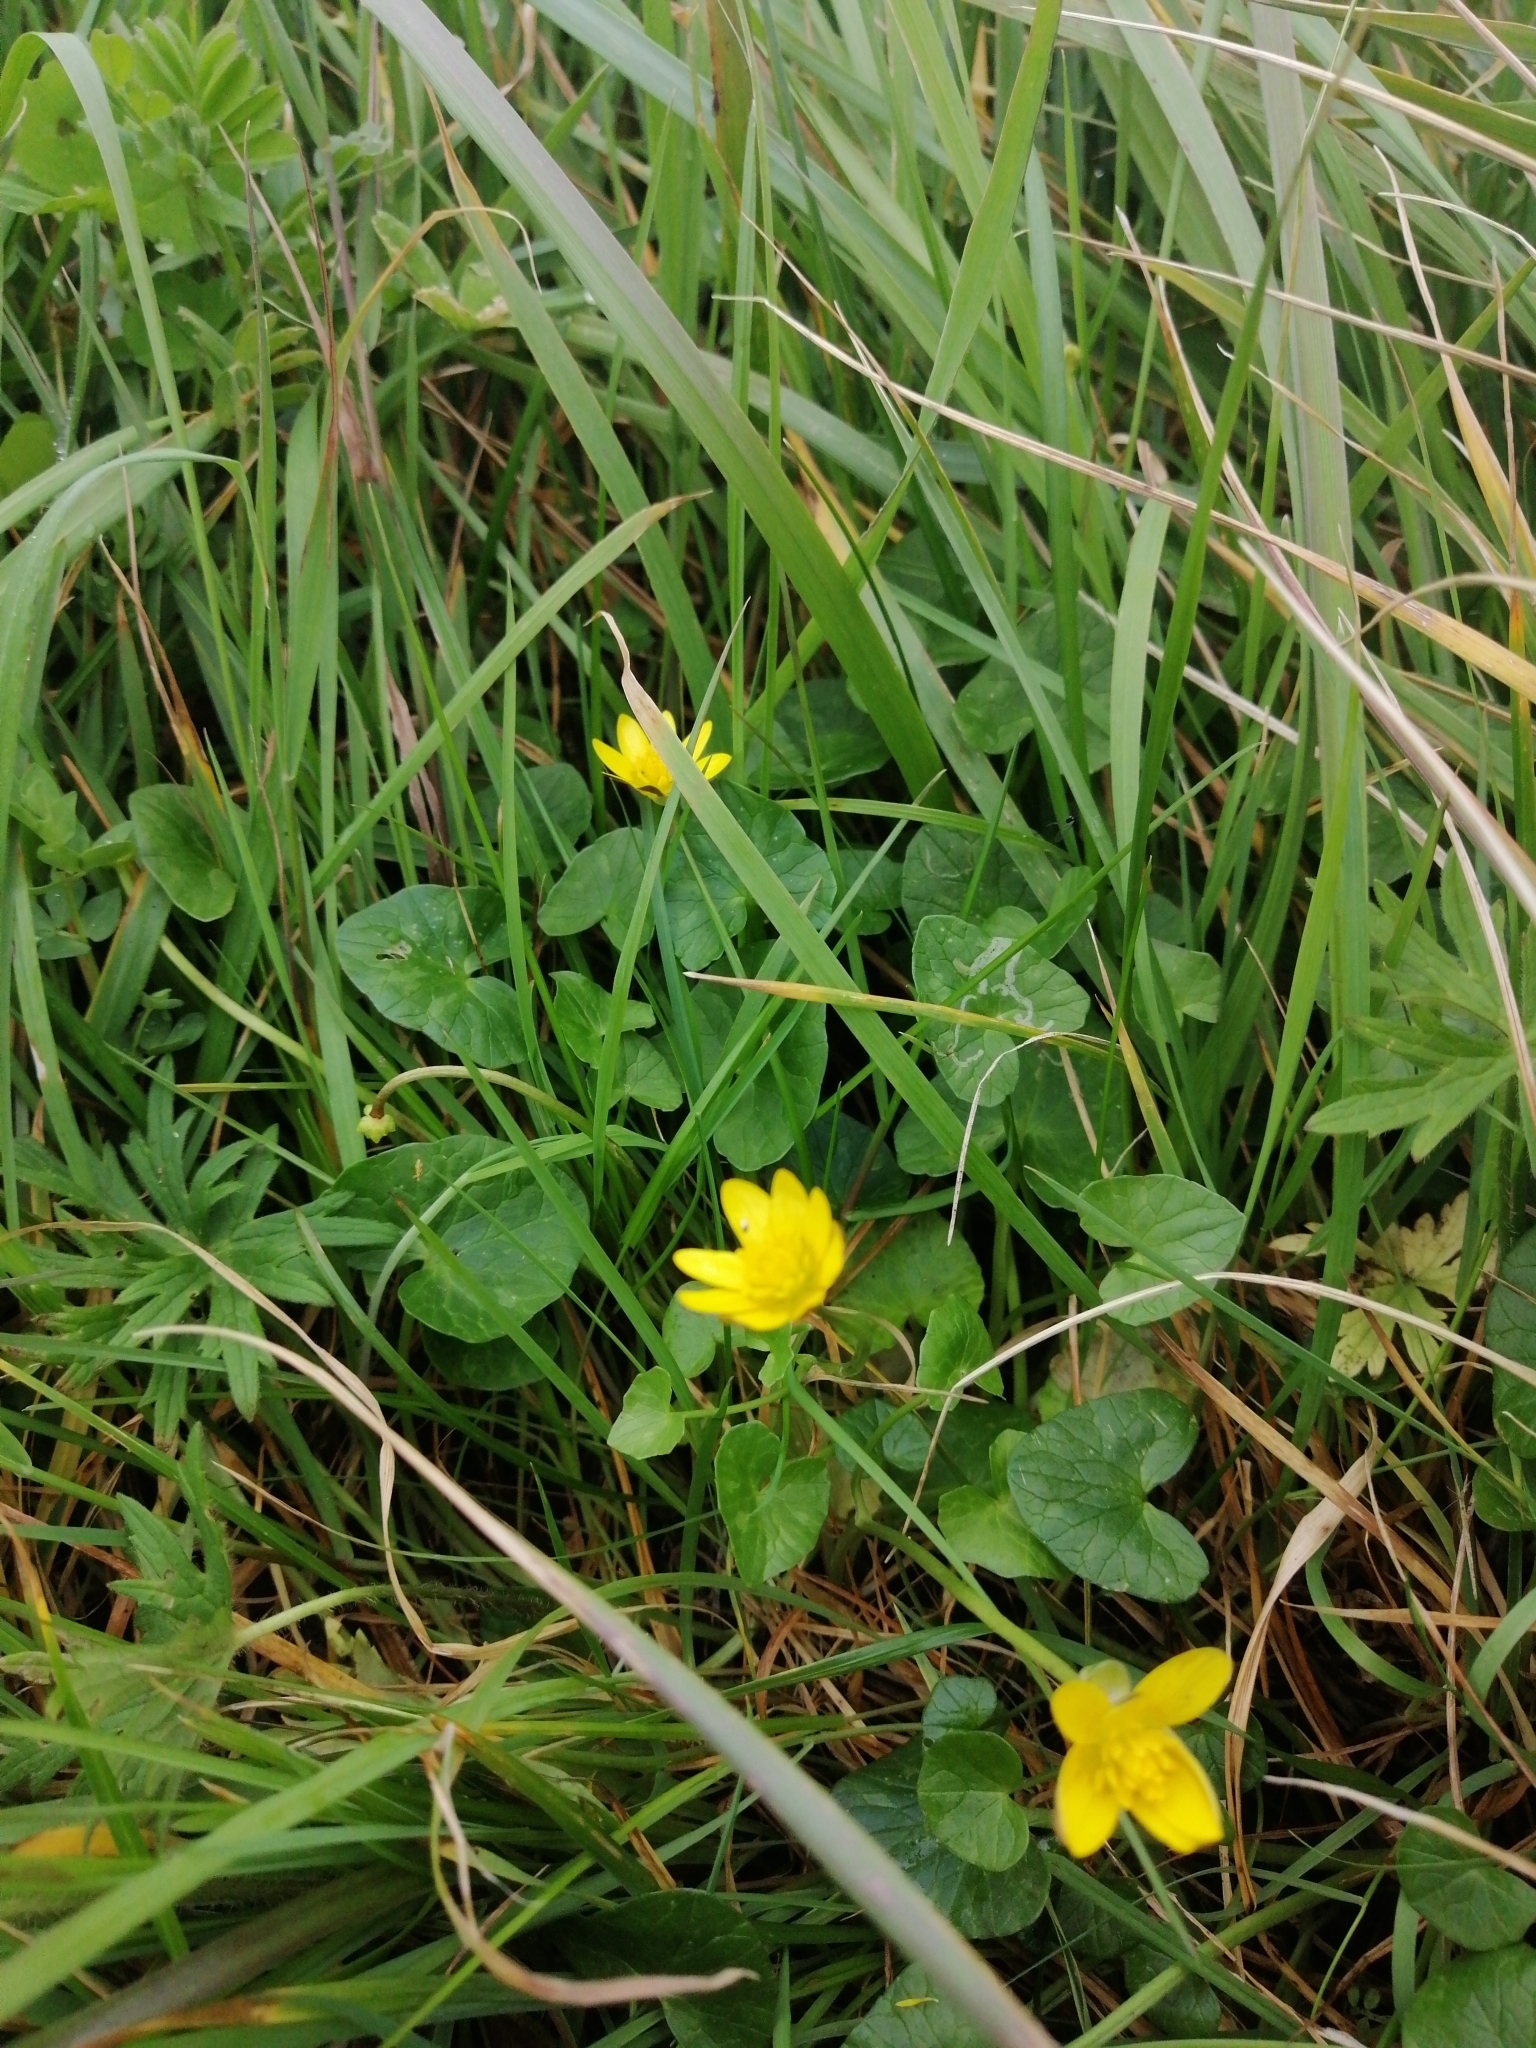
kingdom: Plantae
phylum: Tracheophyta
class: Magnoliopsida
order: Ranunculales
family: Ranunculaceae
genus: Ficaria
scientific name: Ficaria verna
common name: Lesser celandine
